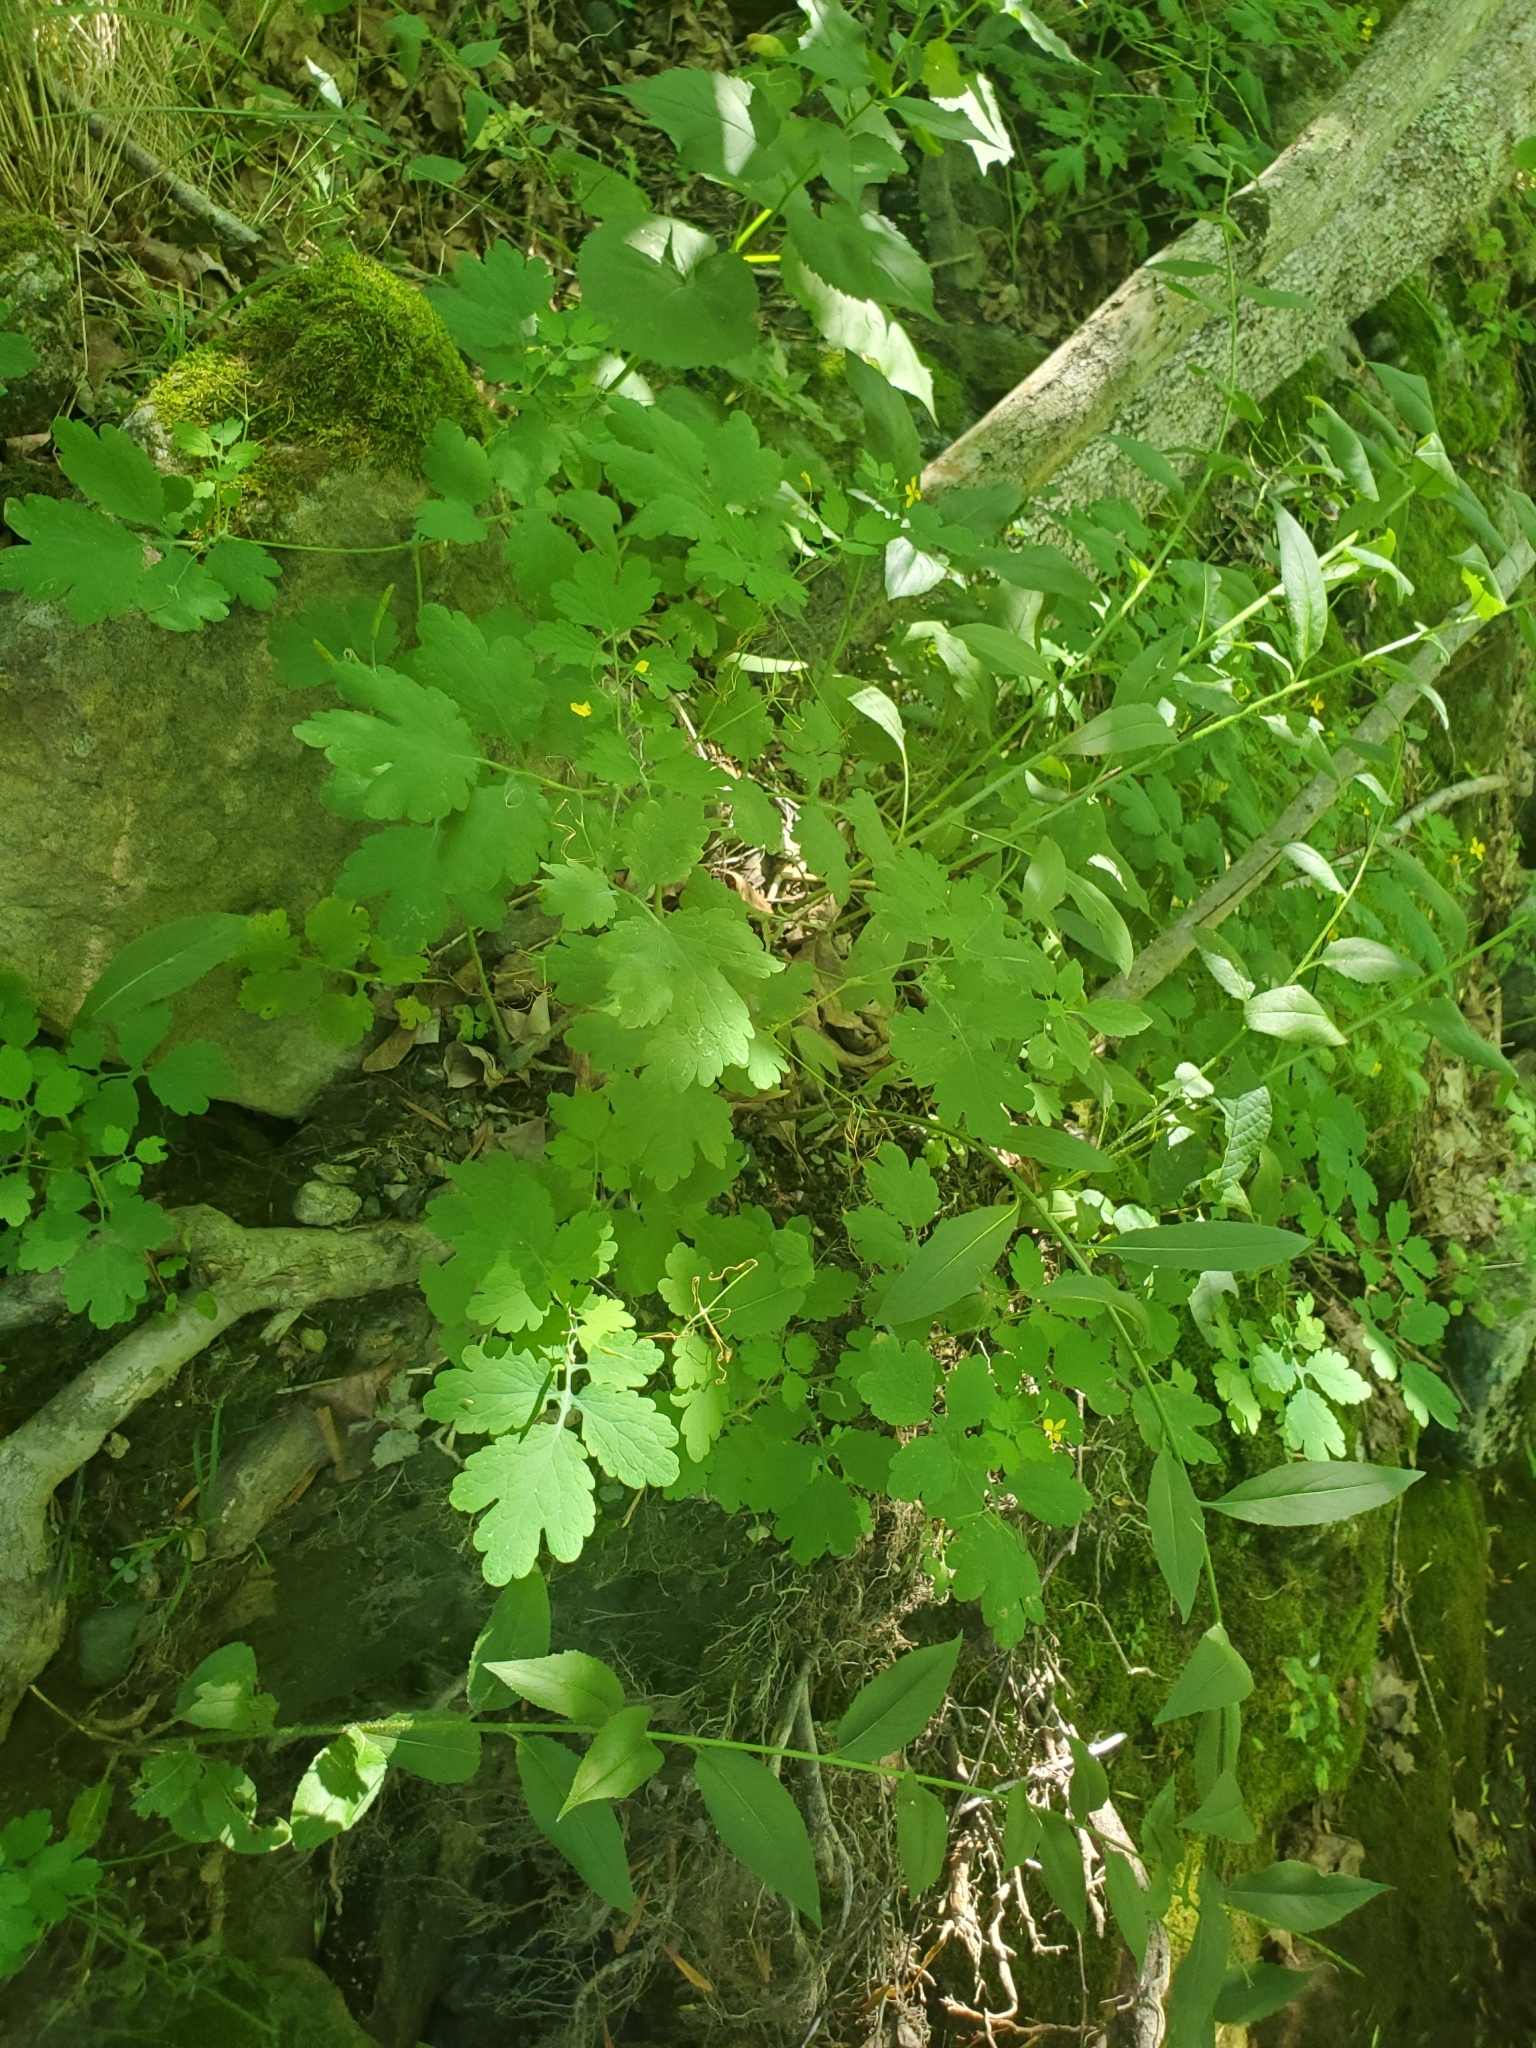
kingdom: Plantae
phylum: Tracheophyta
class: Magnoliopsida
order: Ranunculales
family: Papaveraceae
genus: Chelidonium
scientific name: Chelidonium majus
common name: Greater celandine
